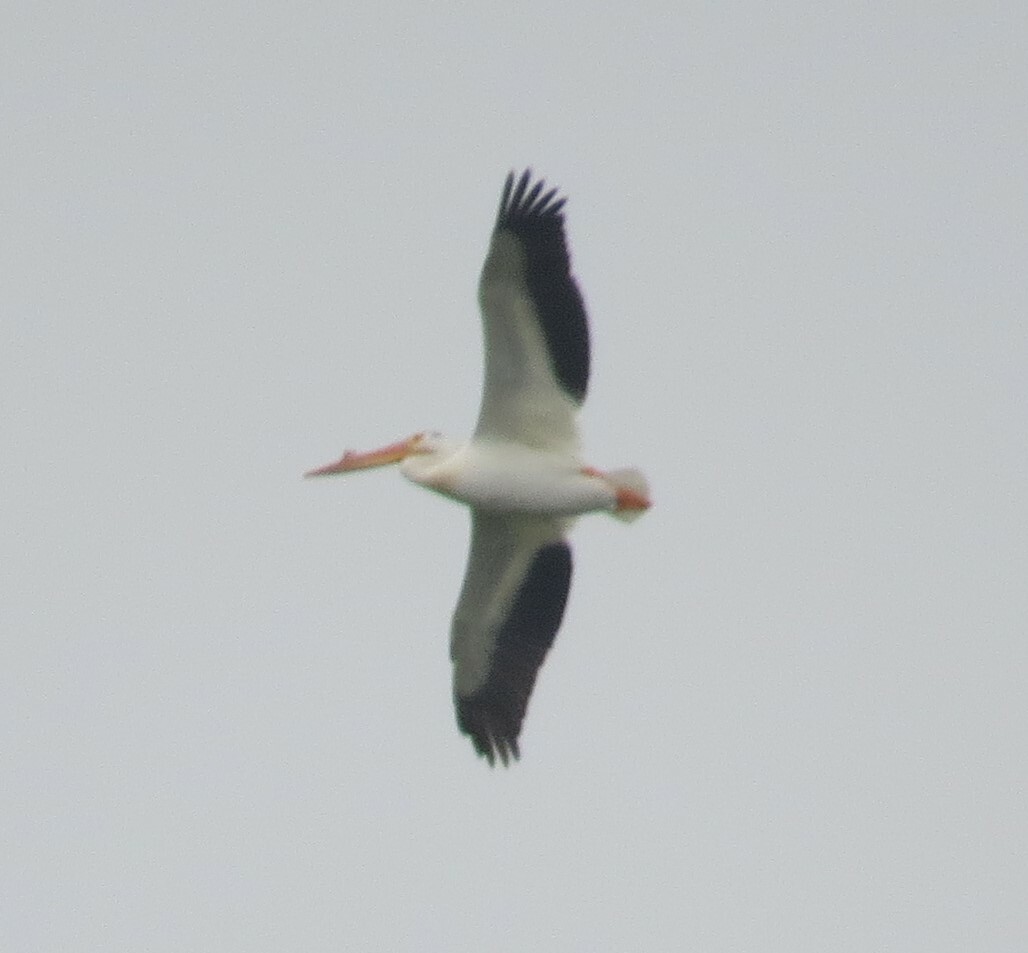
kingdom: Animalia
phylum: Chordata
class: Aves
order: Pelecaniformes
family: Pelecanidae
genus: Pelecanus
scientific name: Pelecanus erythrorhynchos
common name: American white pelican
